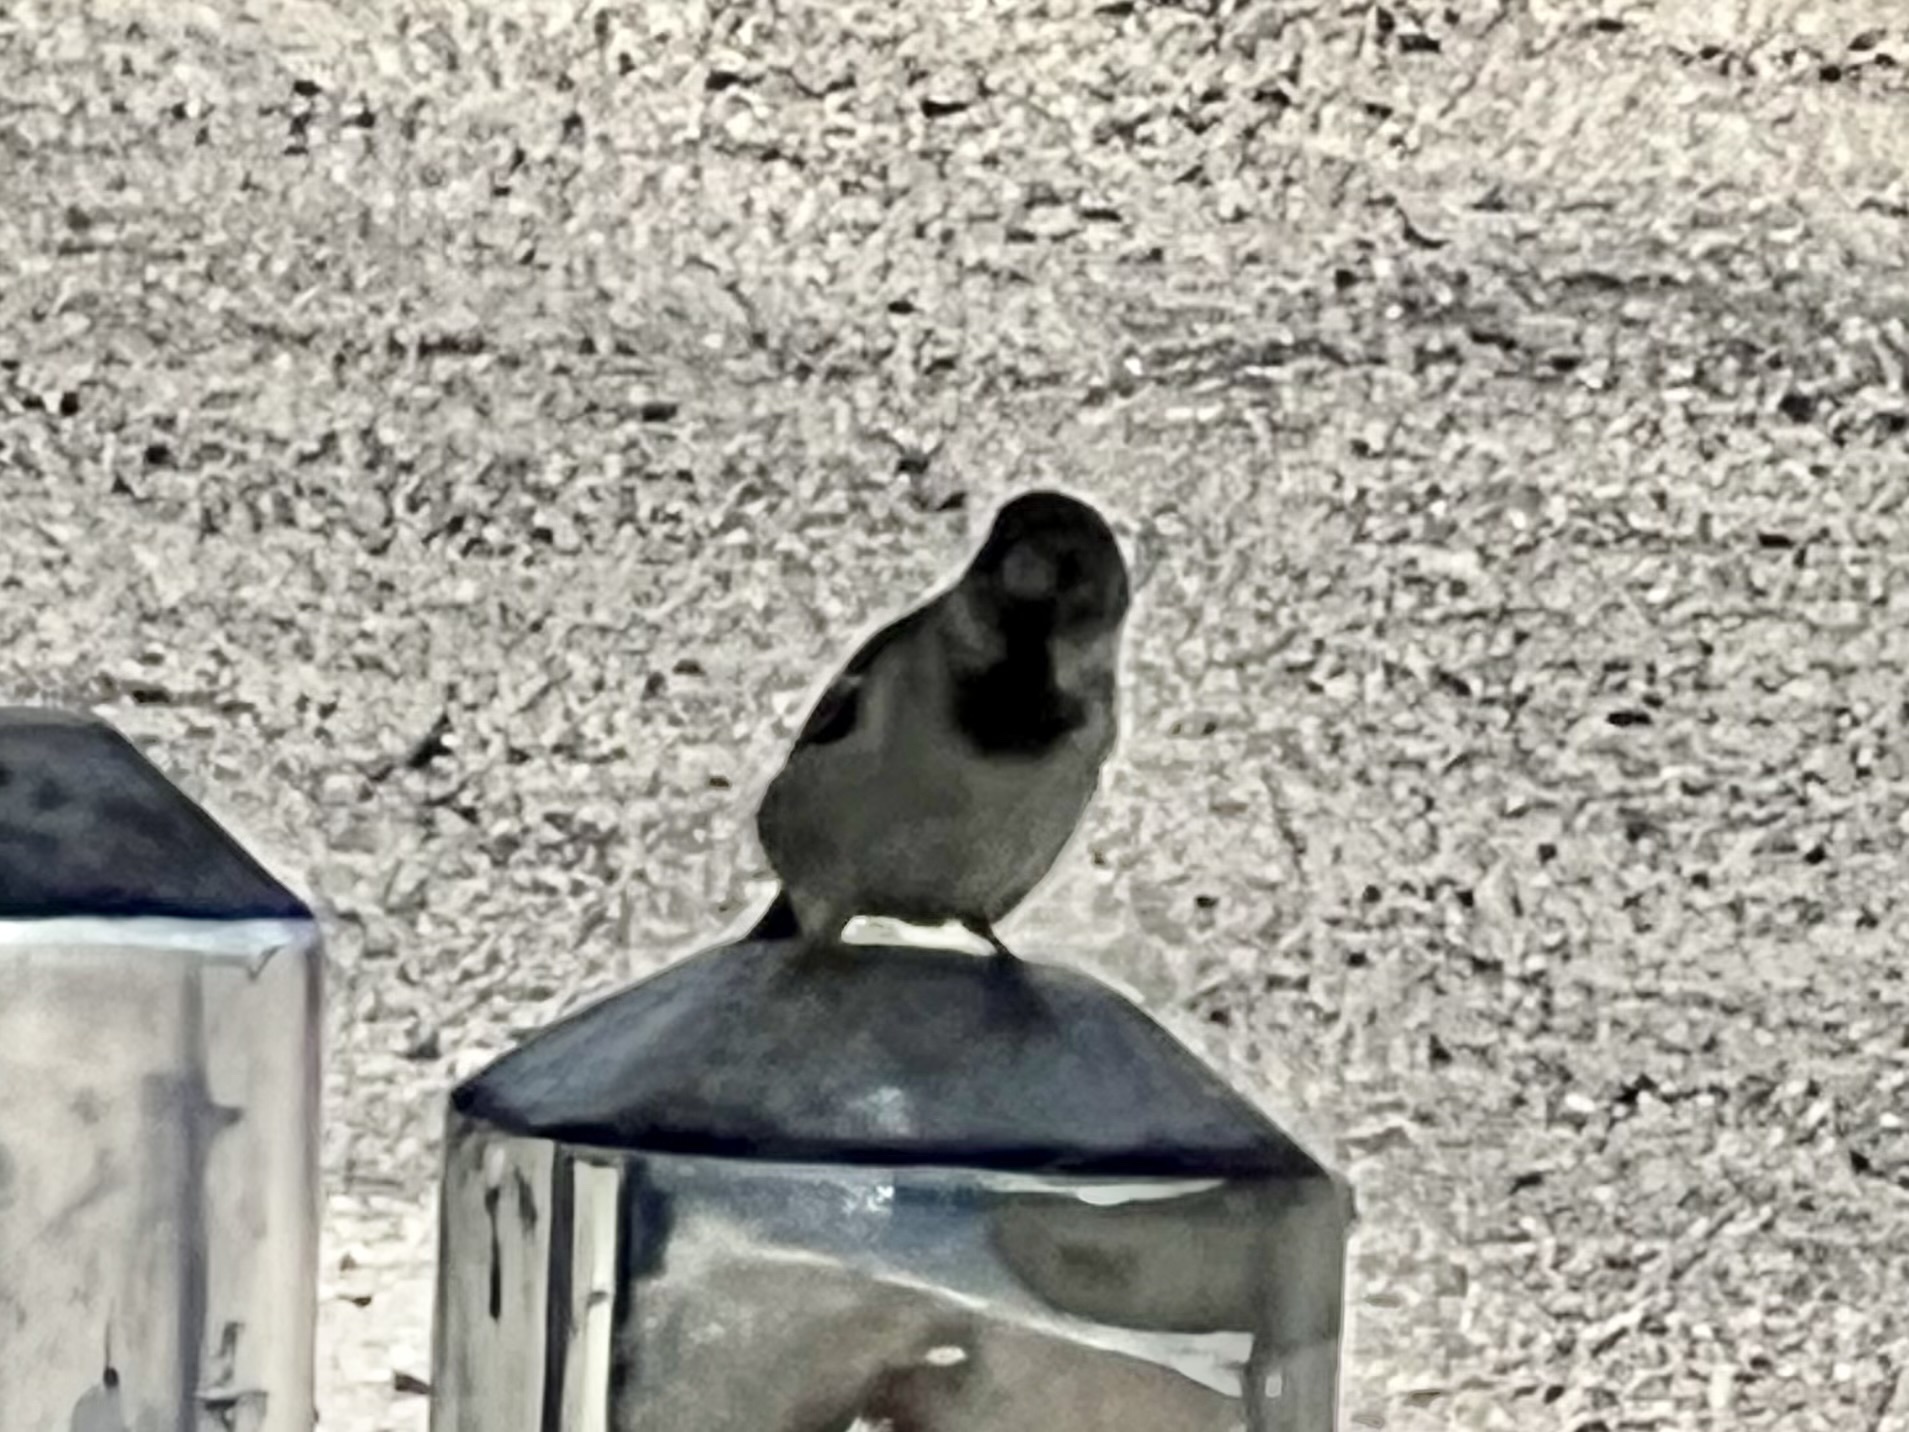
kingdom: Animalia
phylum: Chordata
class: Aves
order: Passeriformes
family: Passeridae
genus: Passer
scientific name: Passer domesticus
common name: House sparrow
